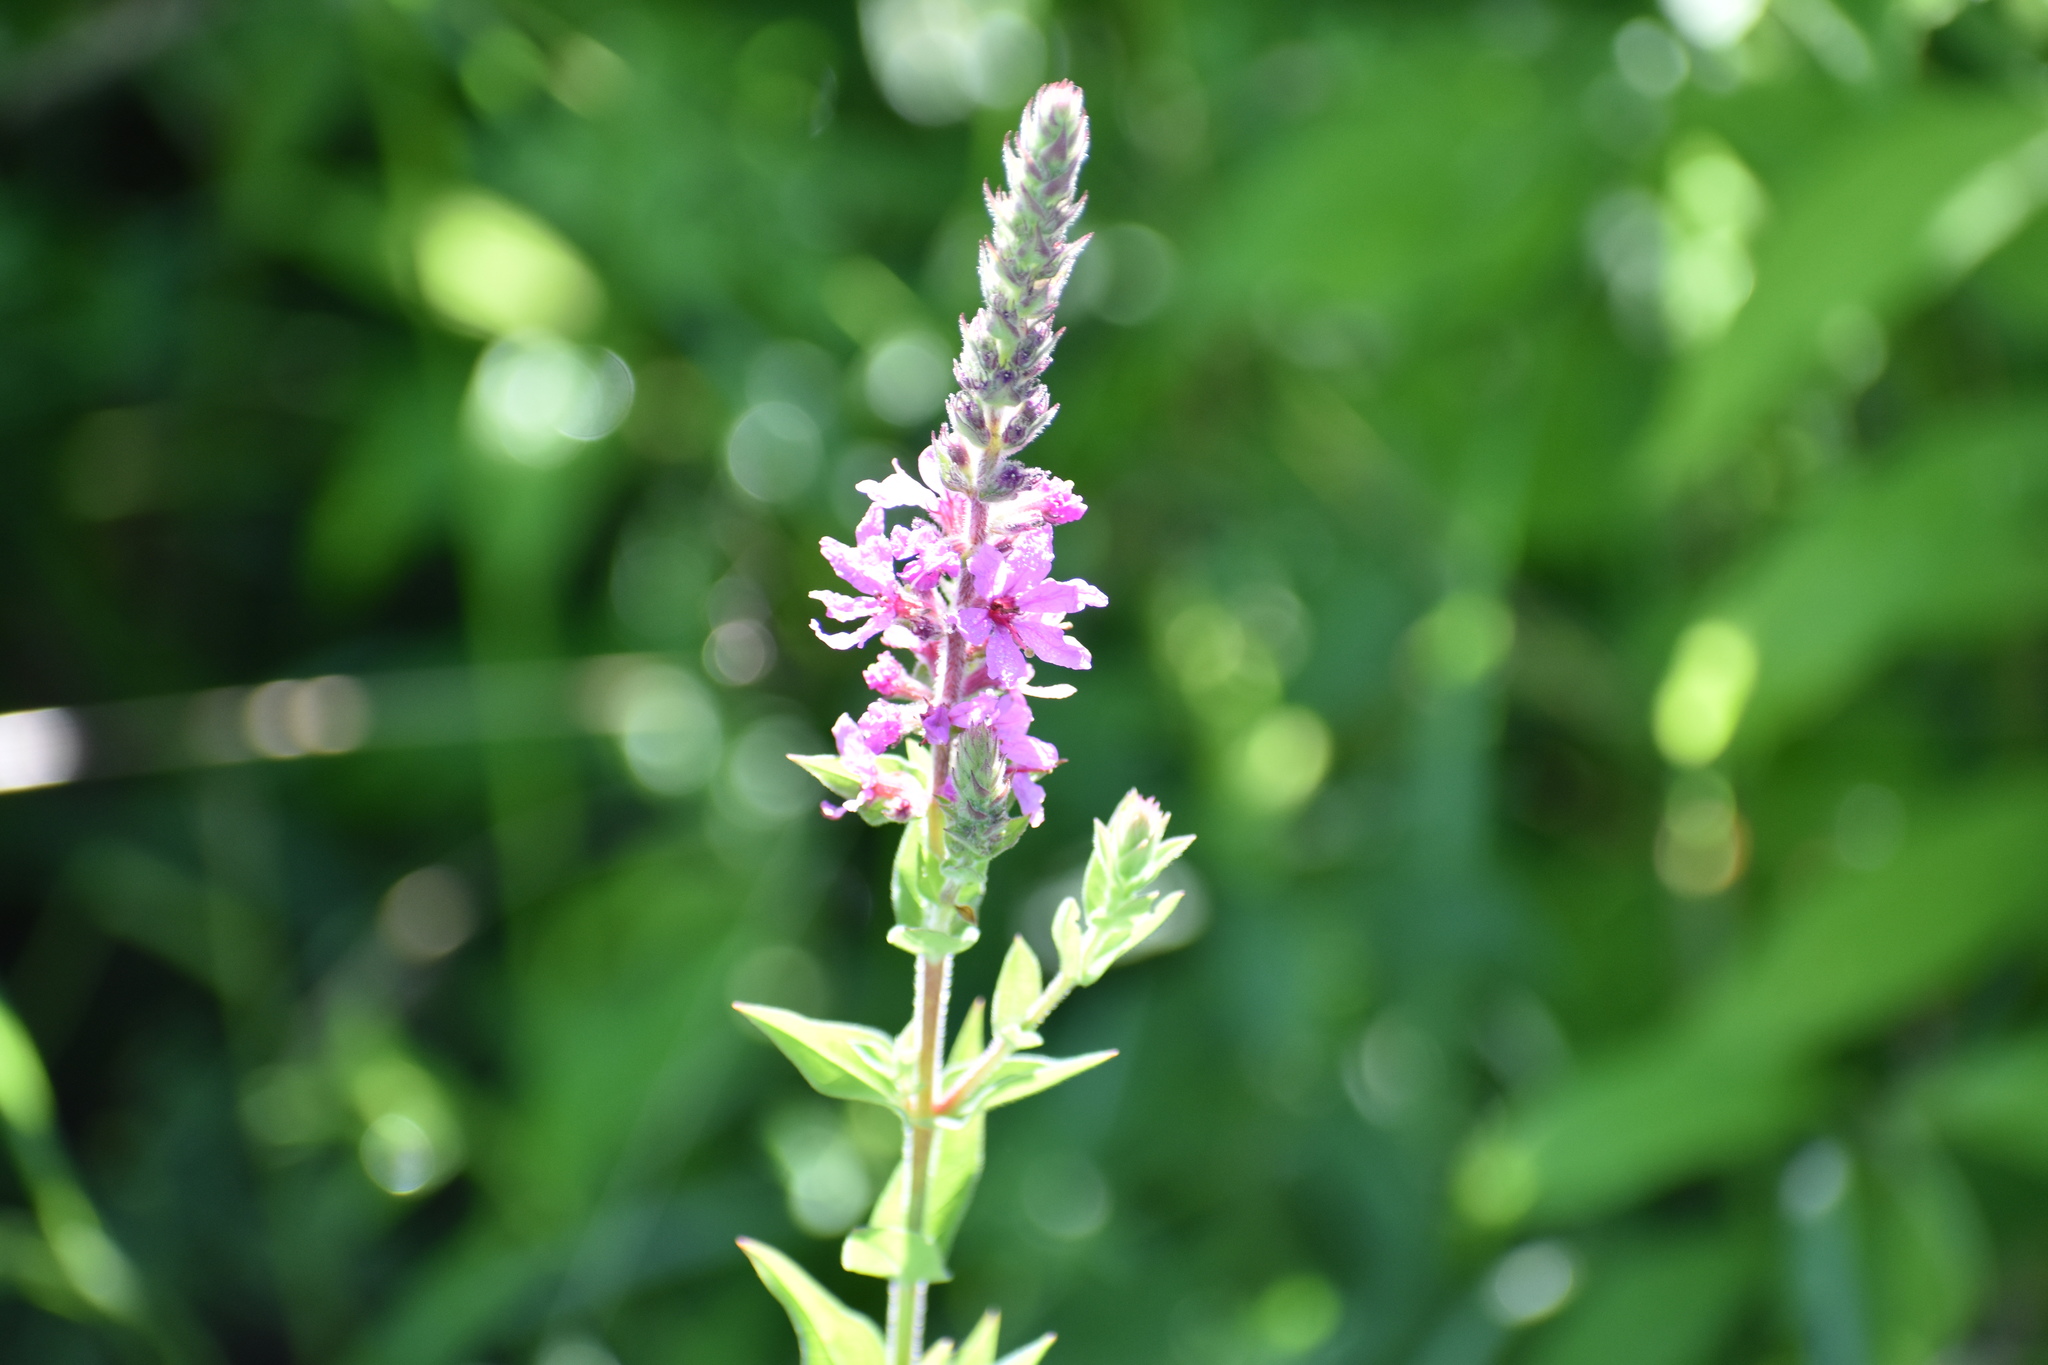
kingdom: Plantae
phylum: Tracheophyta
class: Magnoliopsida
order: Myrtales
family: Lythraceae
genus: Lythrum
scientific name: Lythrum salicaria
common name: Purple loosestrife
